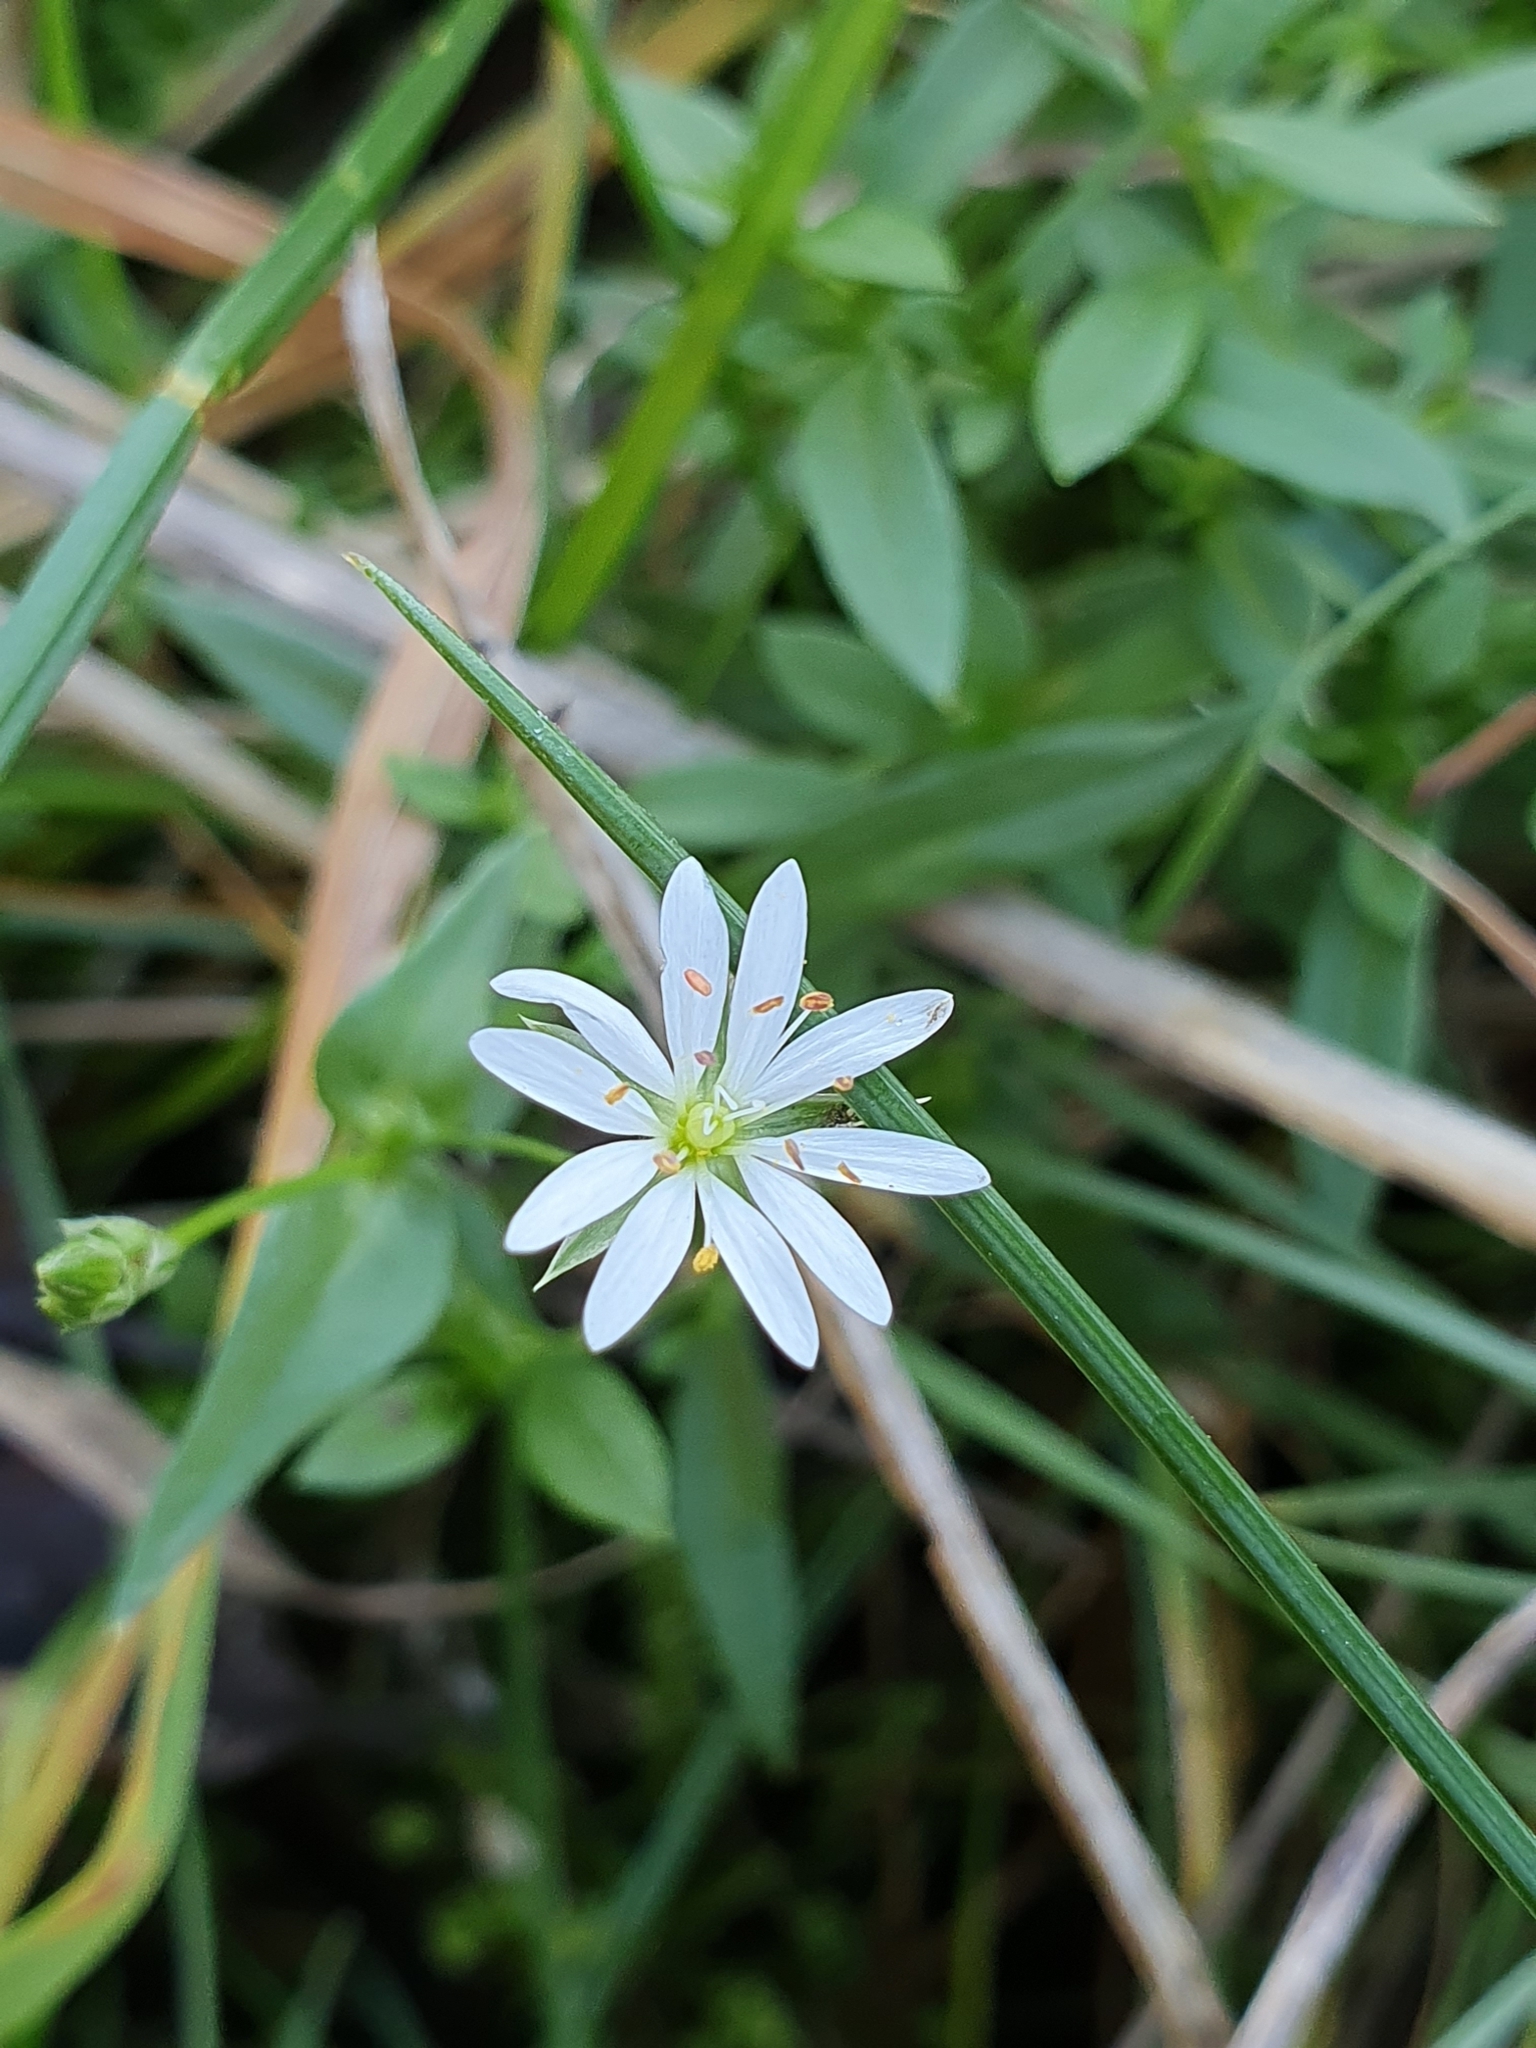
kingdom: Plantae
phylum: Tracheophyta
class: Magnoliopsida
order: Caryophyllales
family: Caryophyllaceae
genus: Stellaria
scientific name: Stellaria graminea
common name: Grass-like starwort
